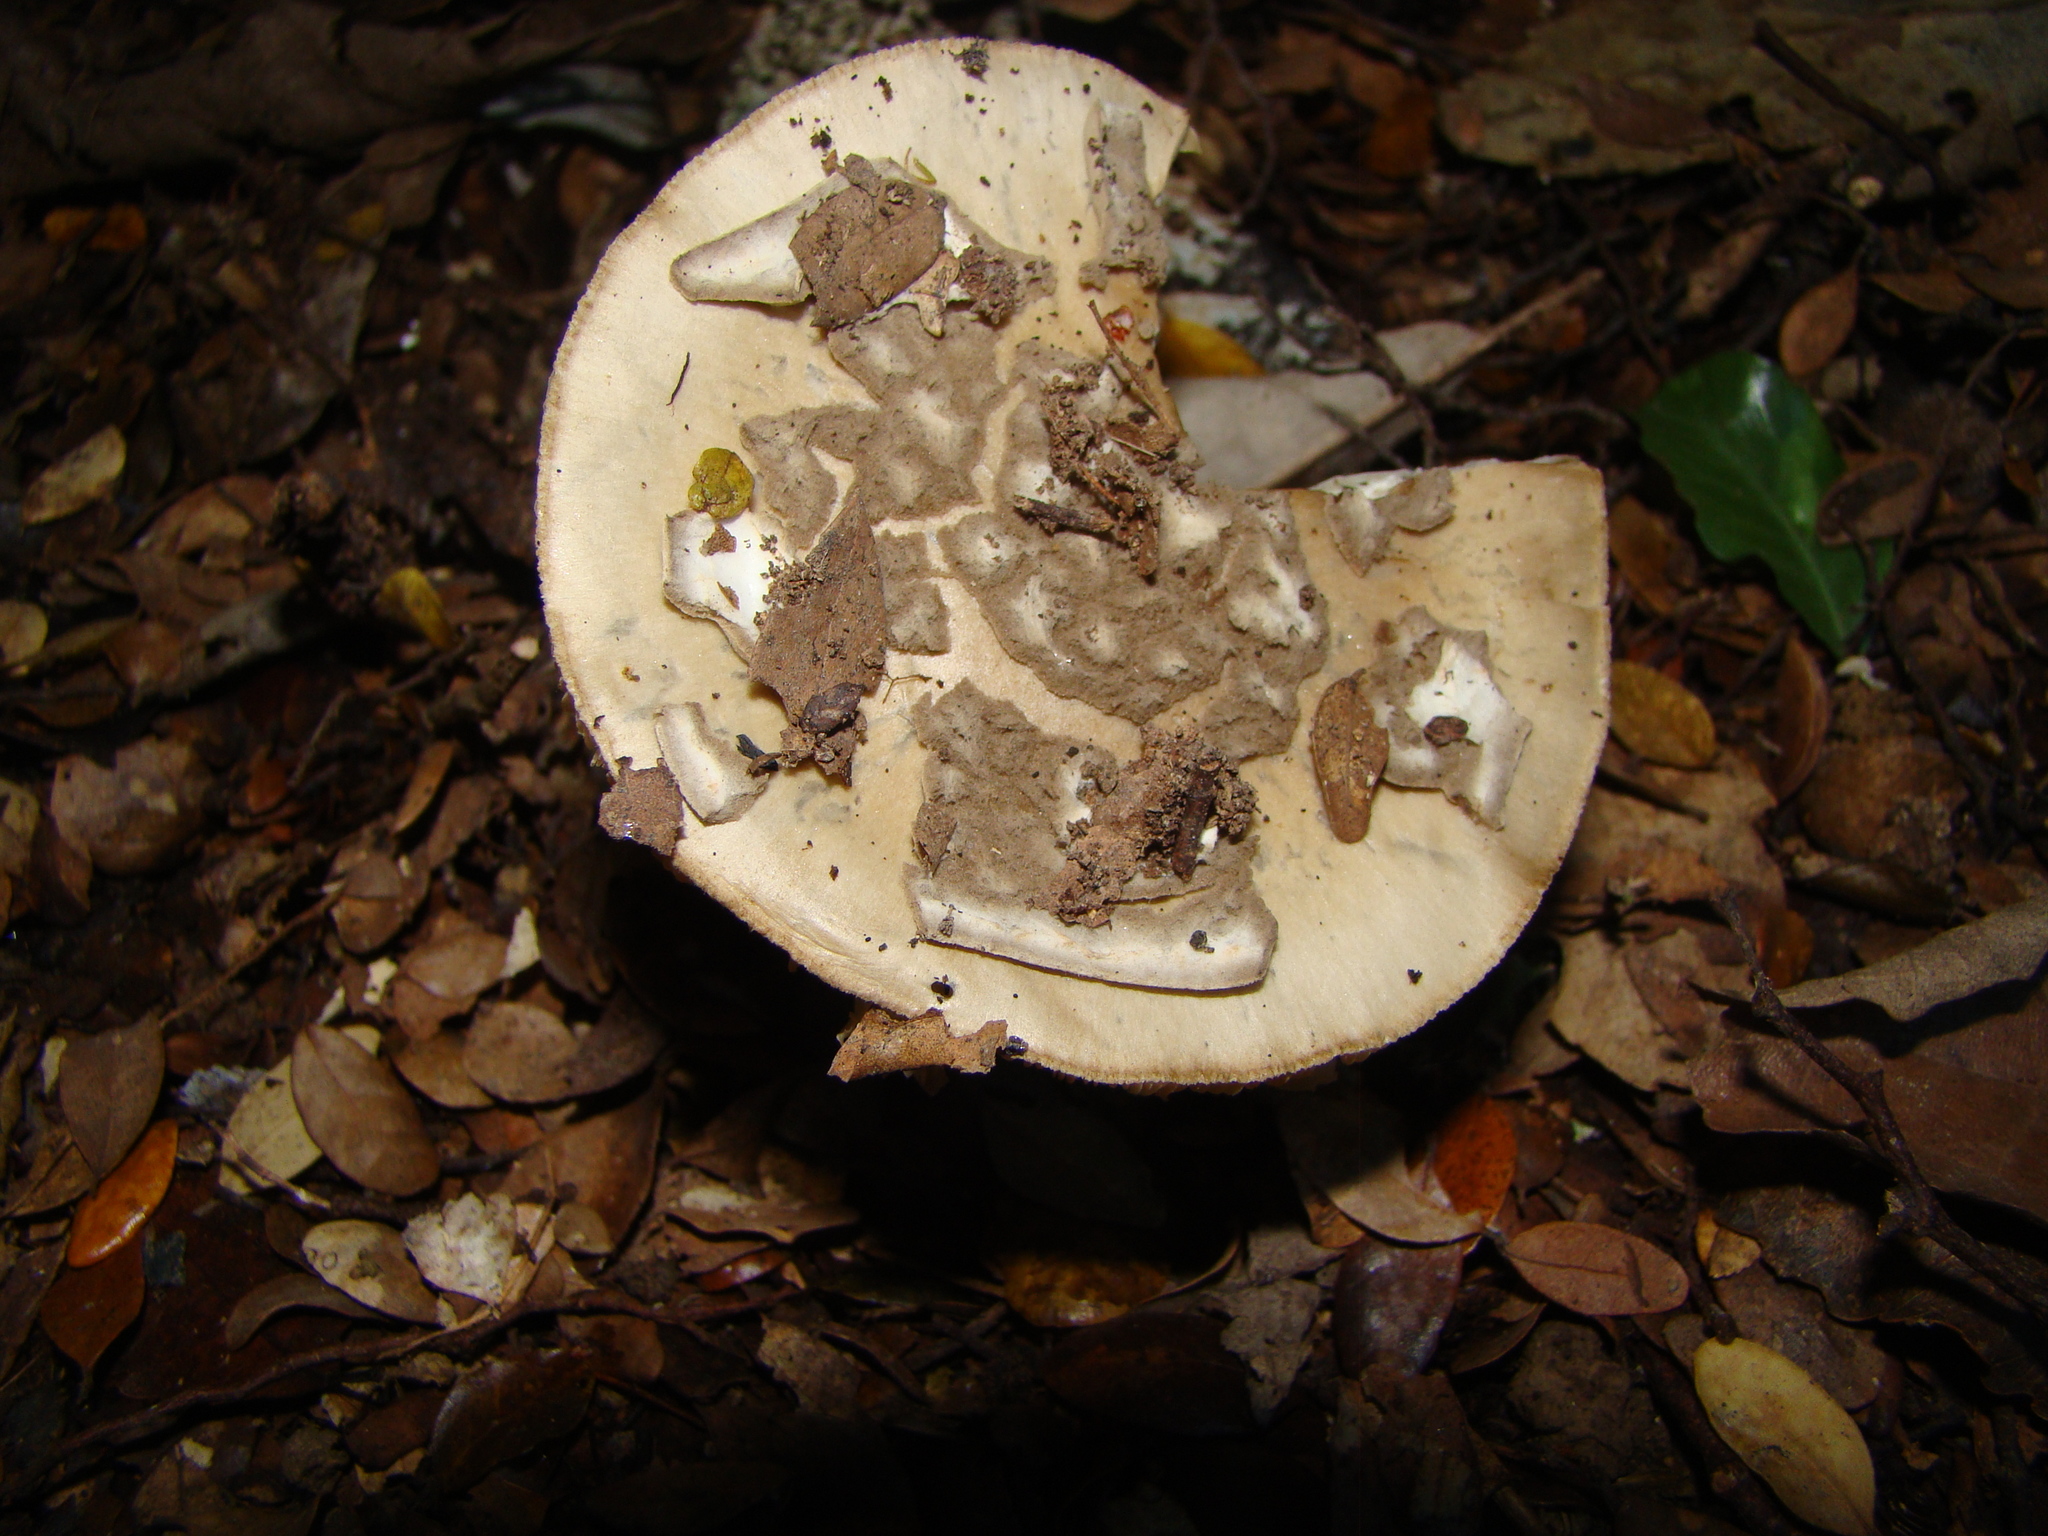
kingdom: Fungi
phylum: Basidiomycota
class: Agaricomycetes
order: Agaricales
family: Amanitaceae
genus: Amanita
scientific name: Amanita nothofagi
